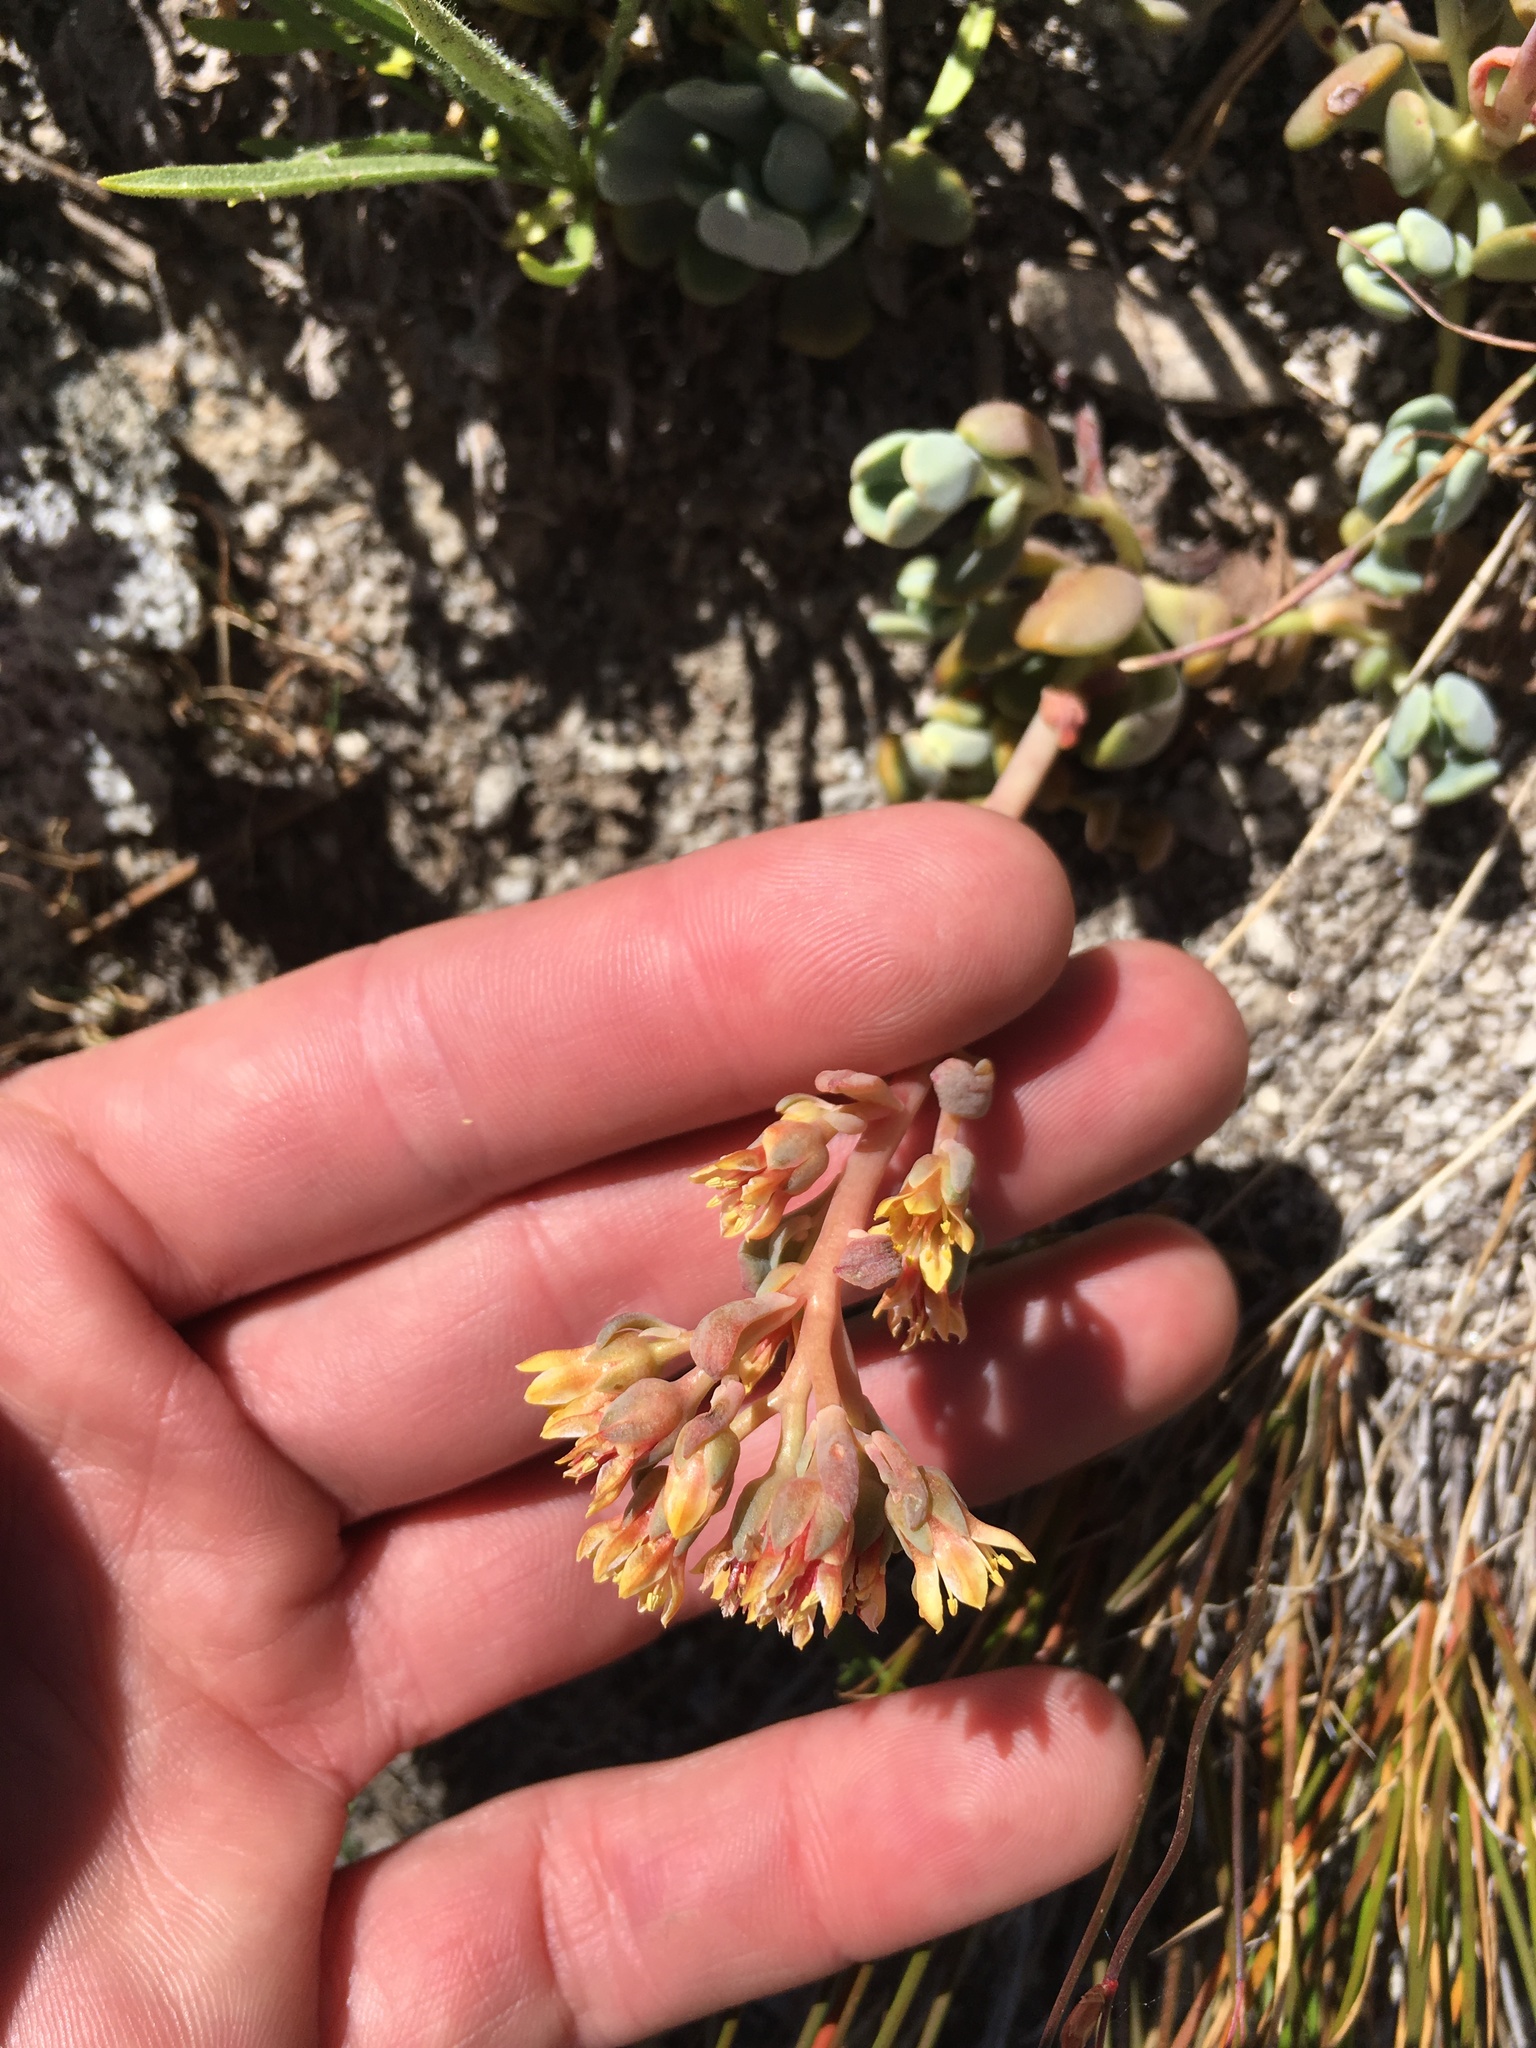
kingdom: Plantae
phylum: Tracheophyta
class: Magnoliopsida
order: Saxifragales
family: Crassulaceae
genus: Sedum
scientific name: Sedum obtusatum
